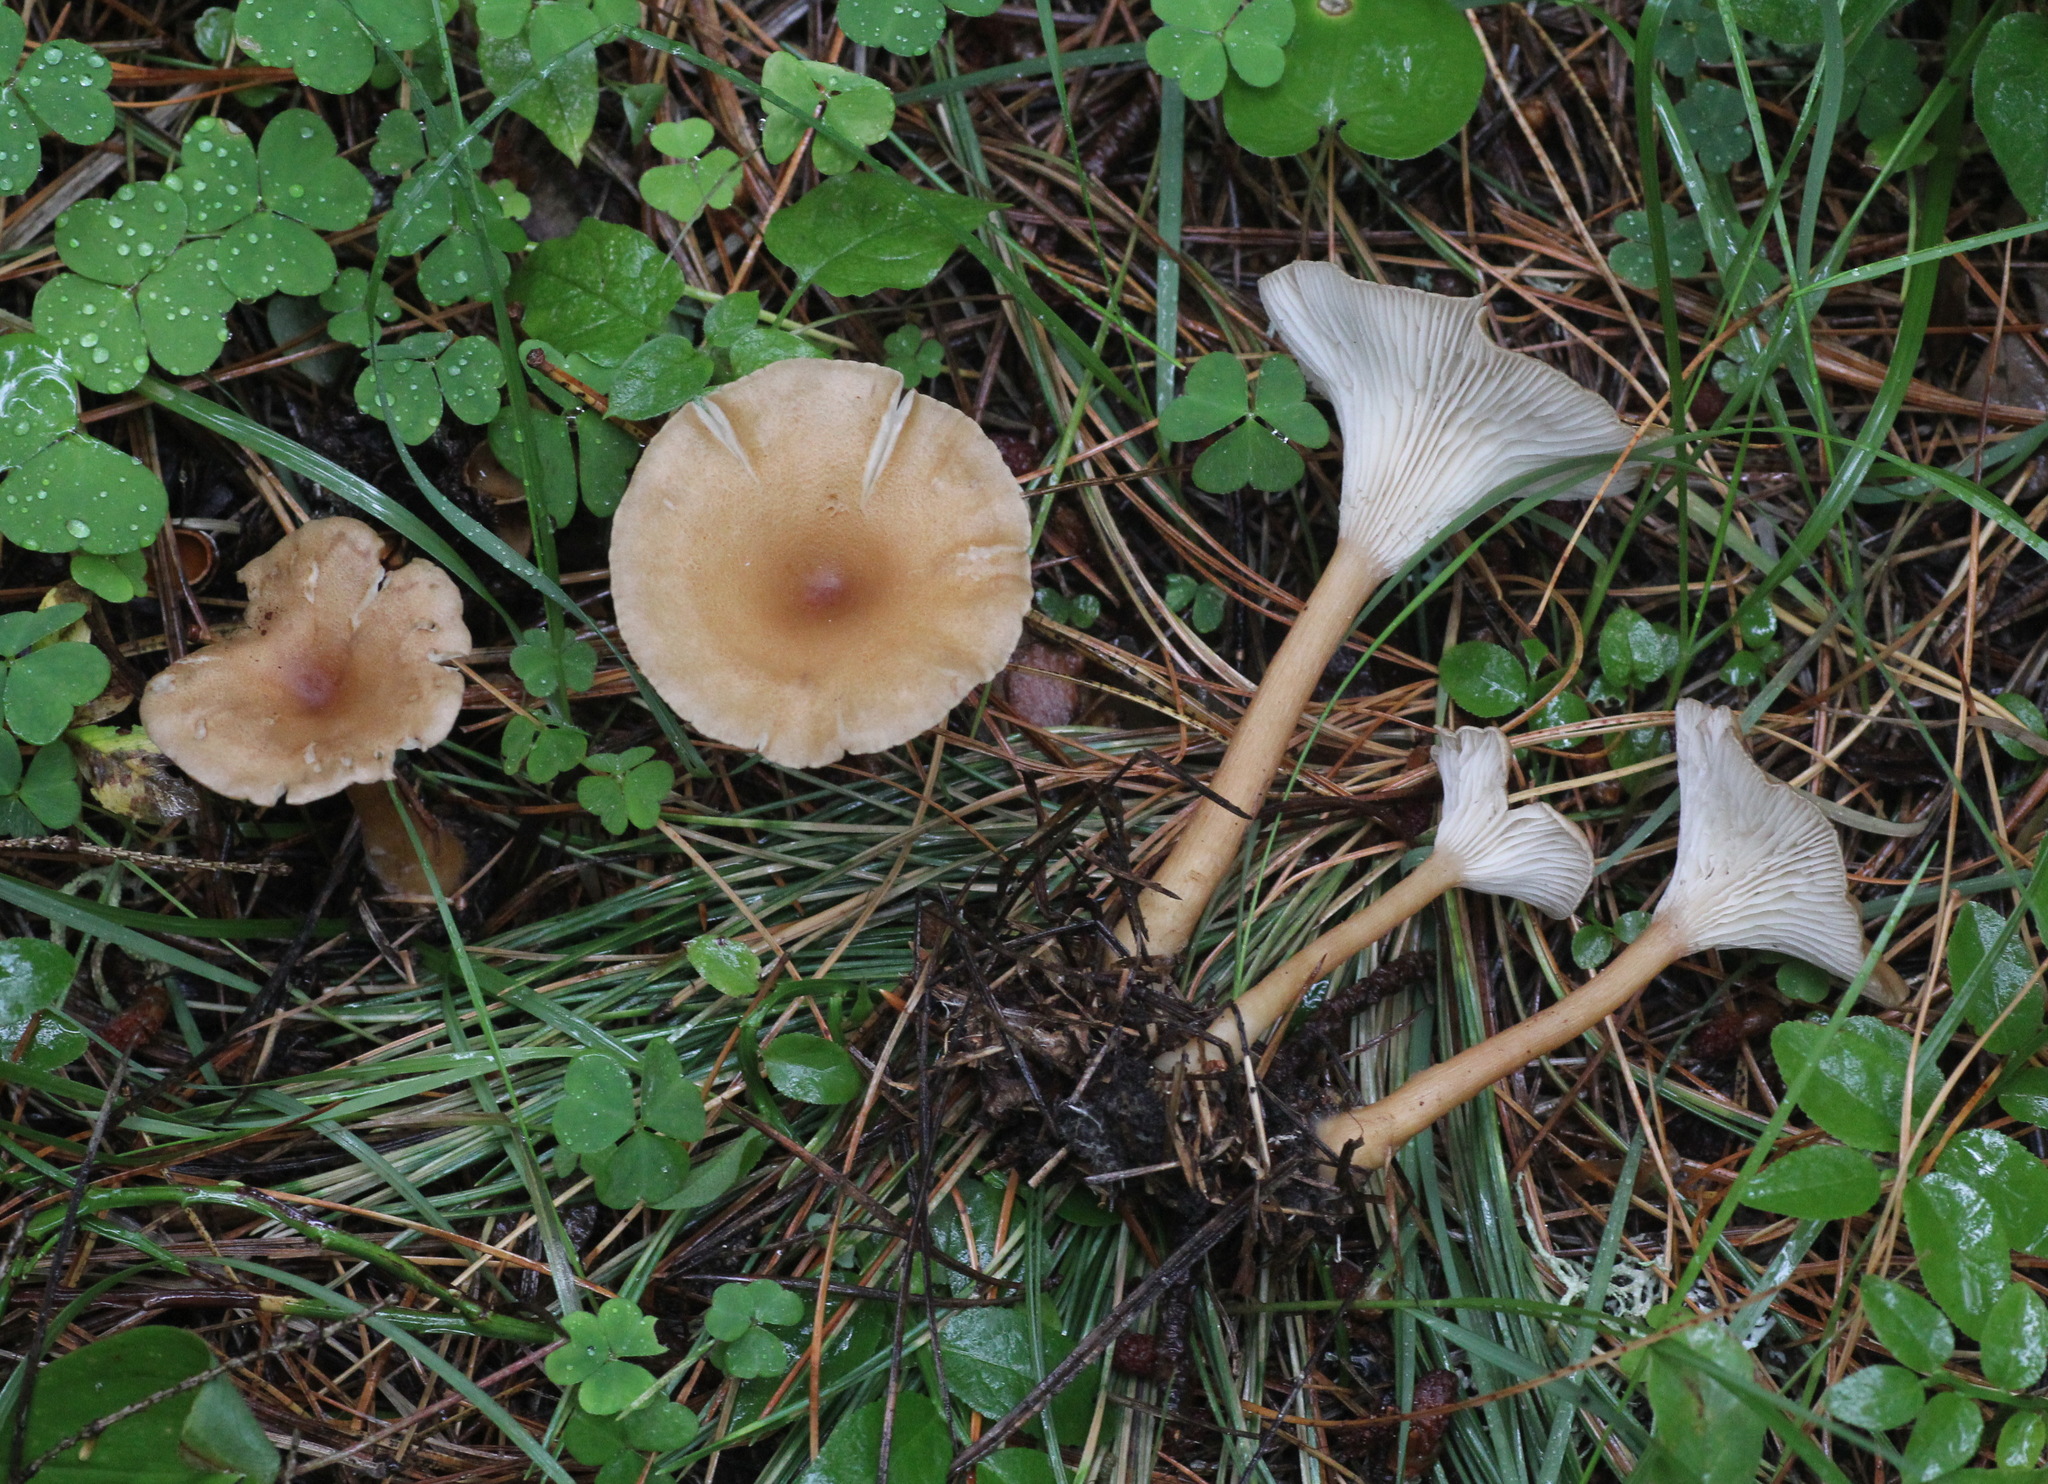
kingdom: Fungi
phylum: Basidiomycota
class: Agaricomycetes
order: Agaricales
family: Tricholomataceae
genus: Infundibulicybe
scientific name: Infundibulicybe gibba
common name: Common funnel
